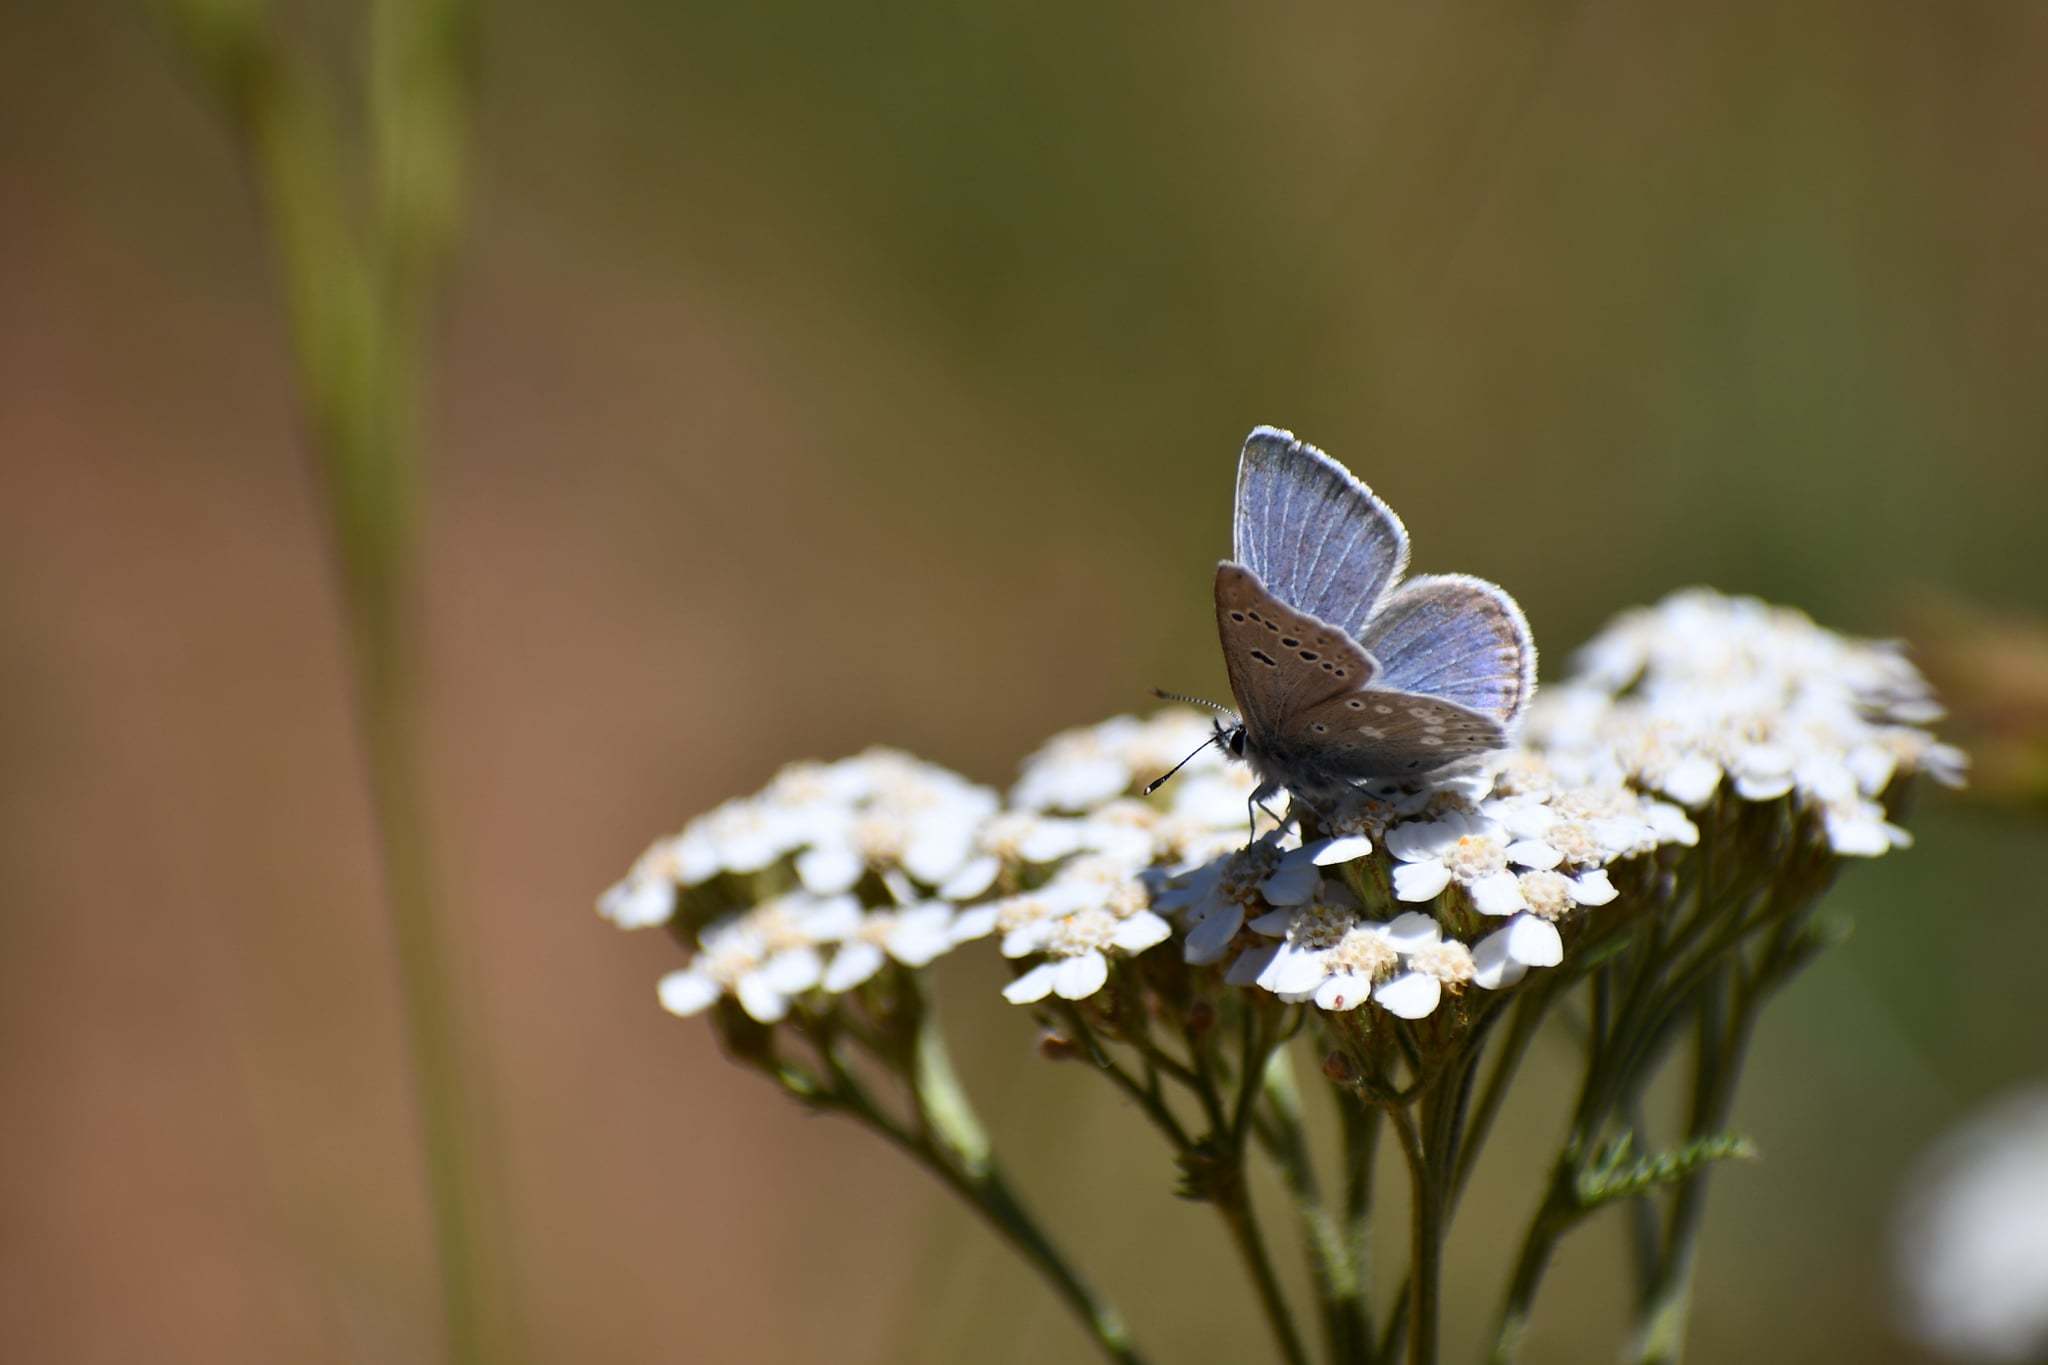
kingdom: Animalia
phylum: Arthropoda
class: Insecta
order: Lepidoptera
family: Lycaenidae
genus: Icaricia
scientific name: Icaricia icarioides
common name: Boisduval's blue
